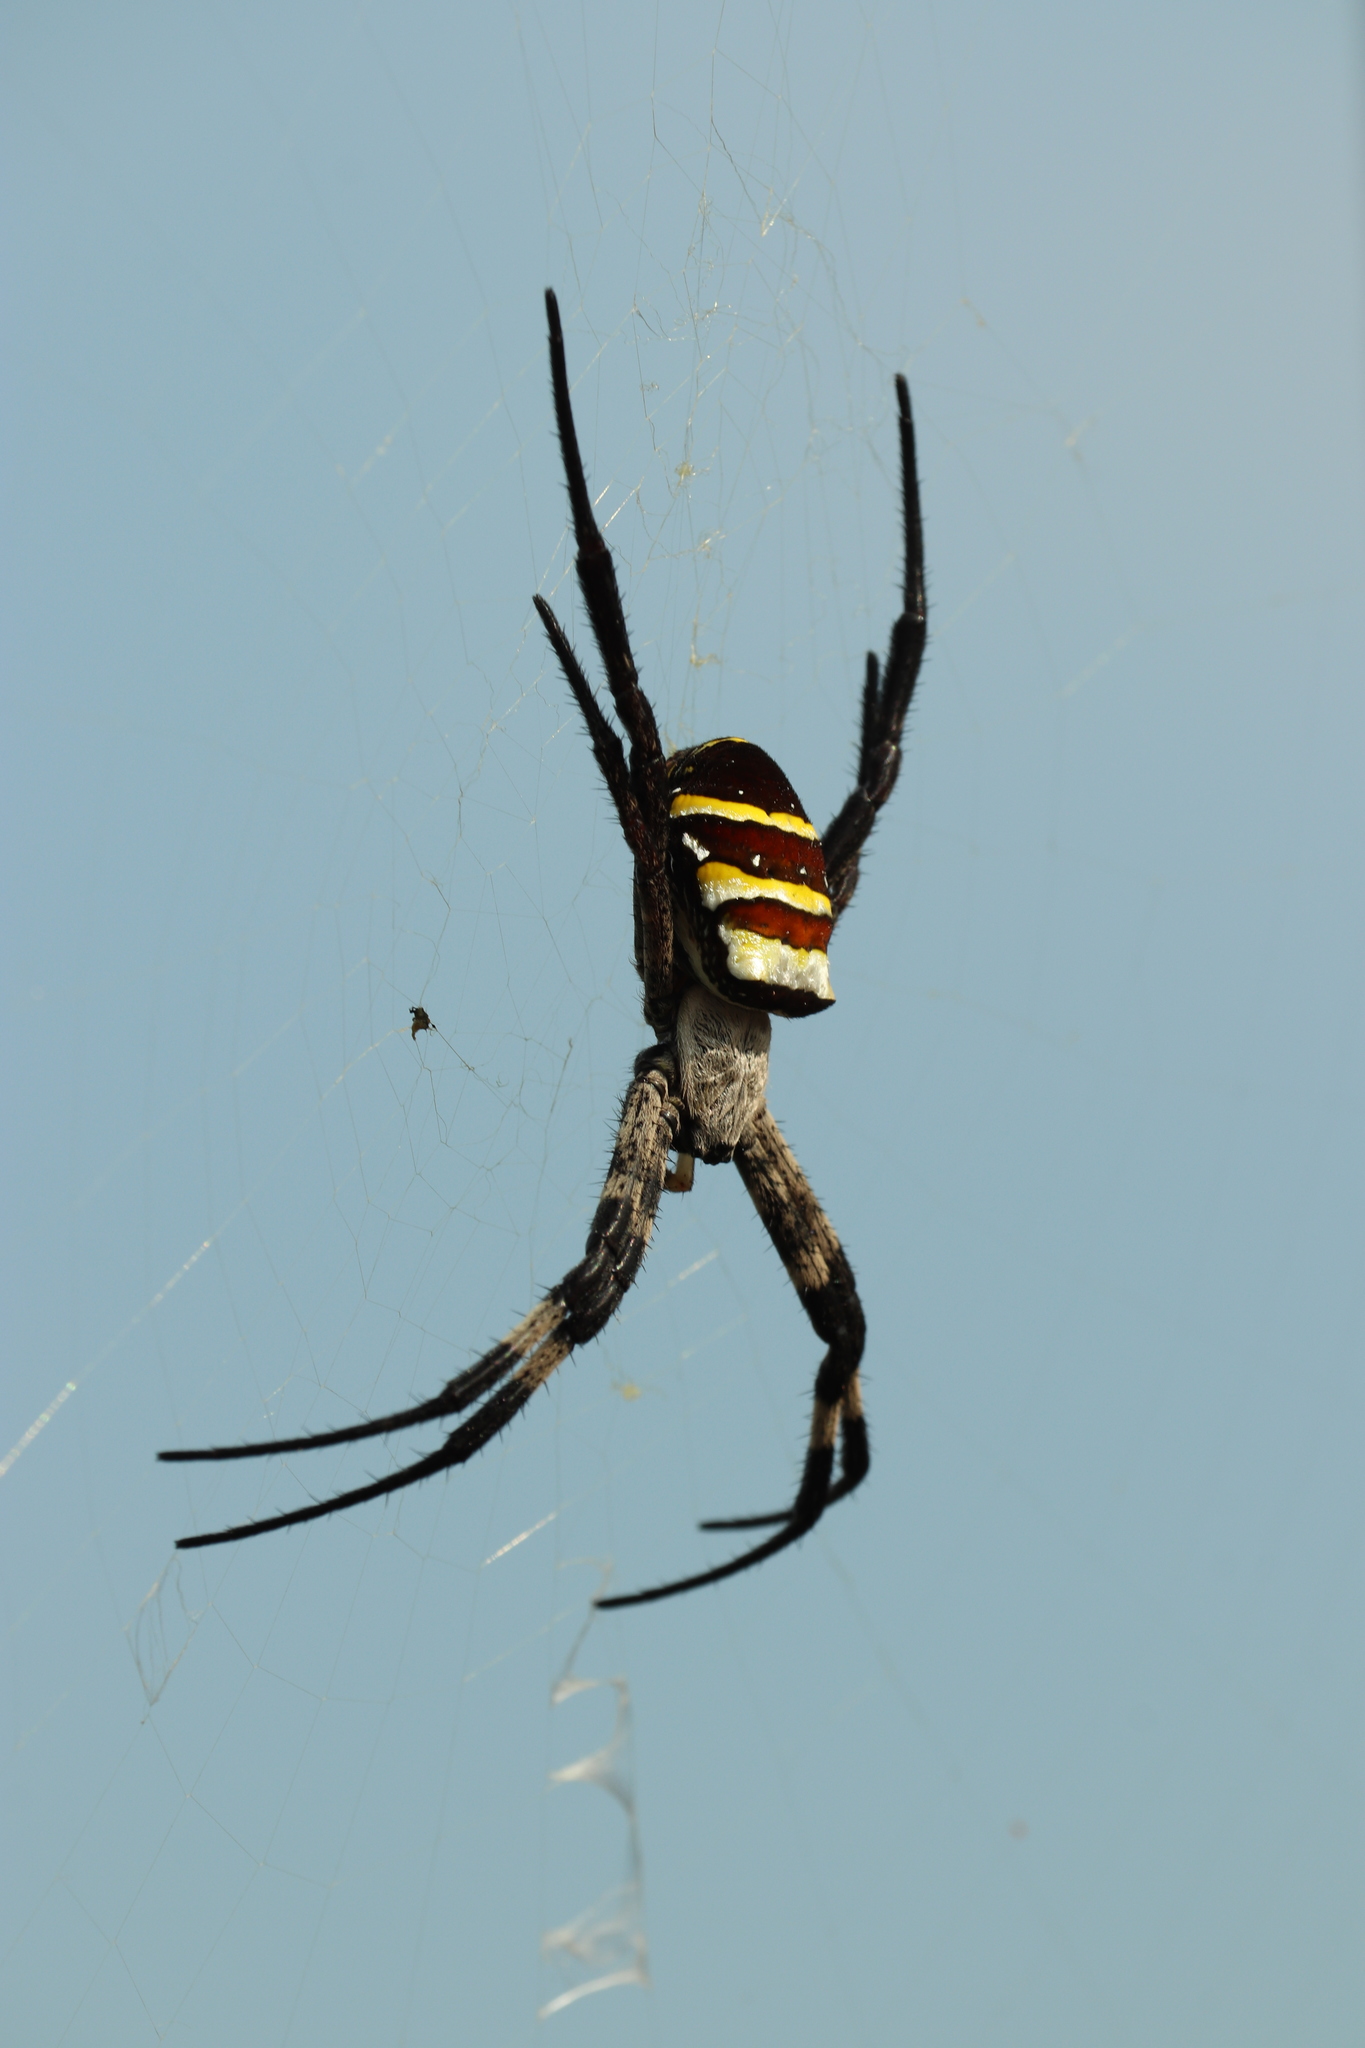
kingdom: Animalia
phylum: Arthropoda
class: Arachnida
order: Araneae
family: Araneidae
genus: Argiope
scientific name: Argiope amoena
